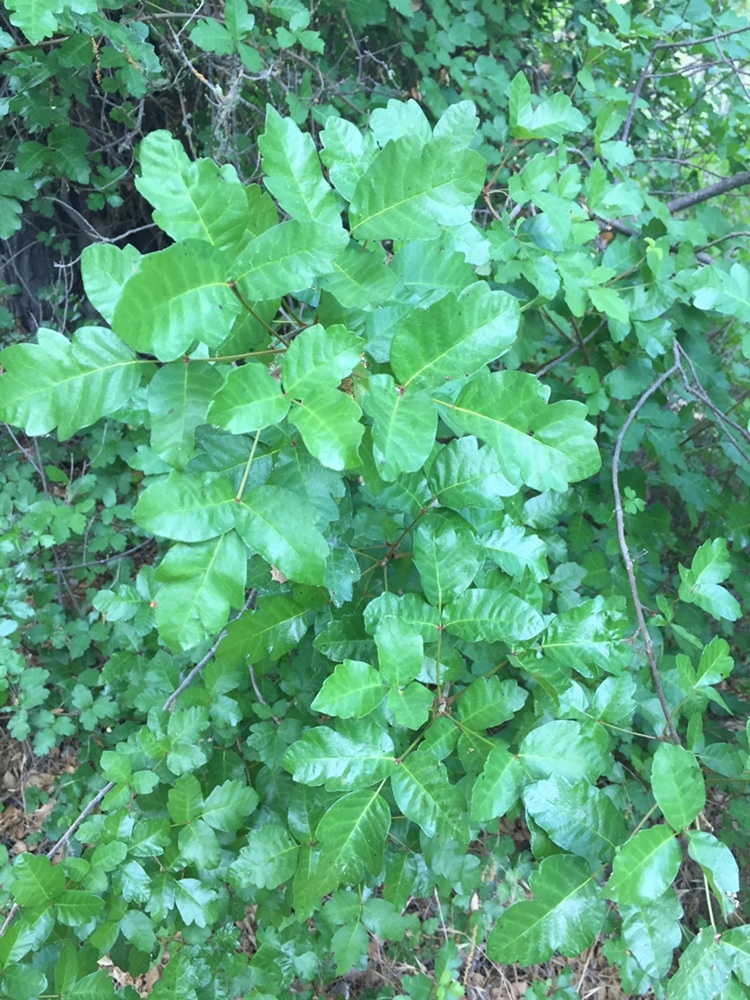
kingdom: Plantae
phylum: Tracheophyta
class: Magnoliopsida
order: Sapindales
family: Anacardiaceae
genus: Toxicodendron
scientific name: Toxicodendron diversilobum
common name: Pacific poison-oak
